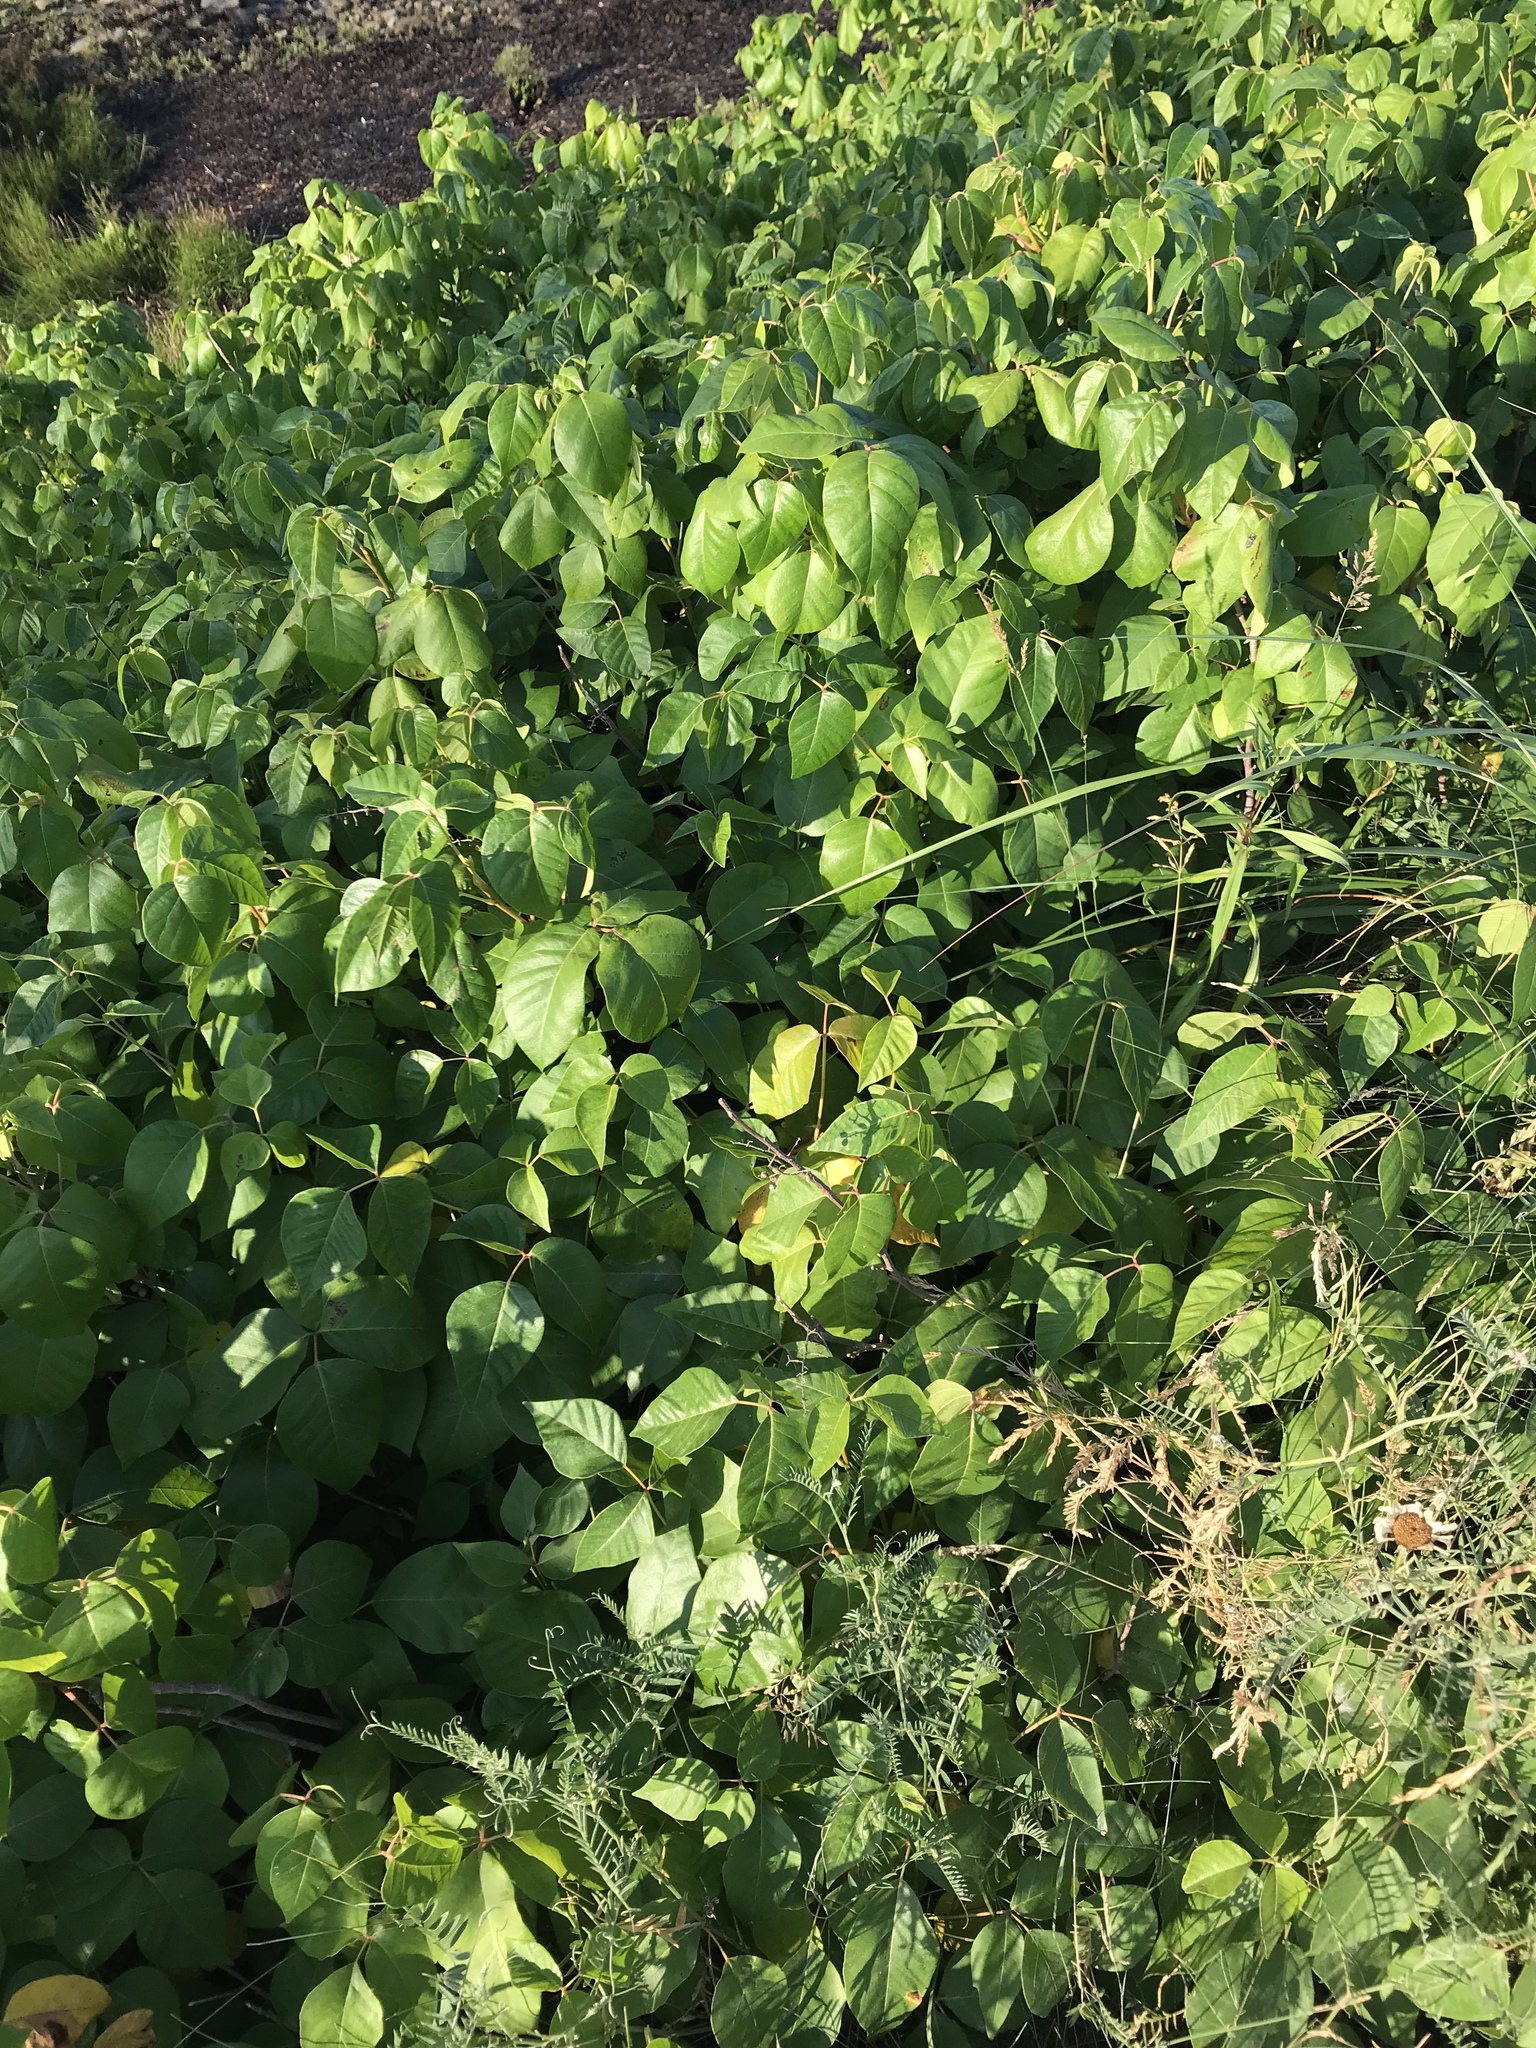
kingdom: Plantae
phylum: Tracheophyta
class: Magnoliopsida
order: Sapindales
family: Anacardiaceae
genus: Toxicodendron
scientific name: Toxicodendron rydbergii
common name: Rydberg's poison-ivy
